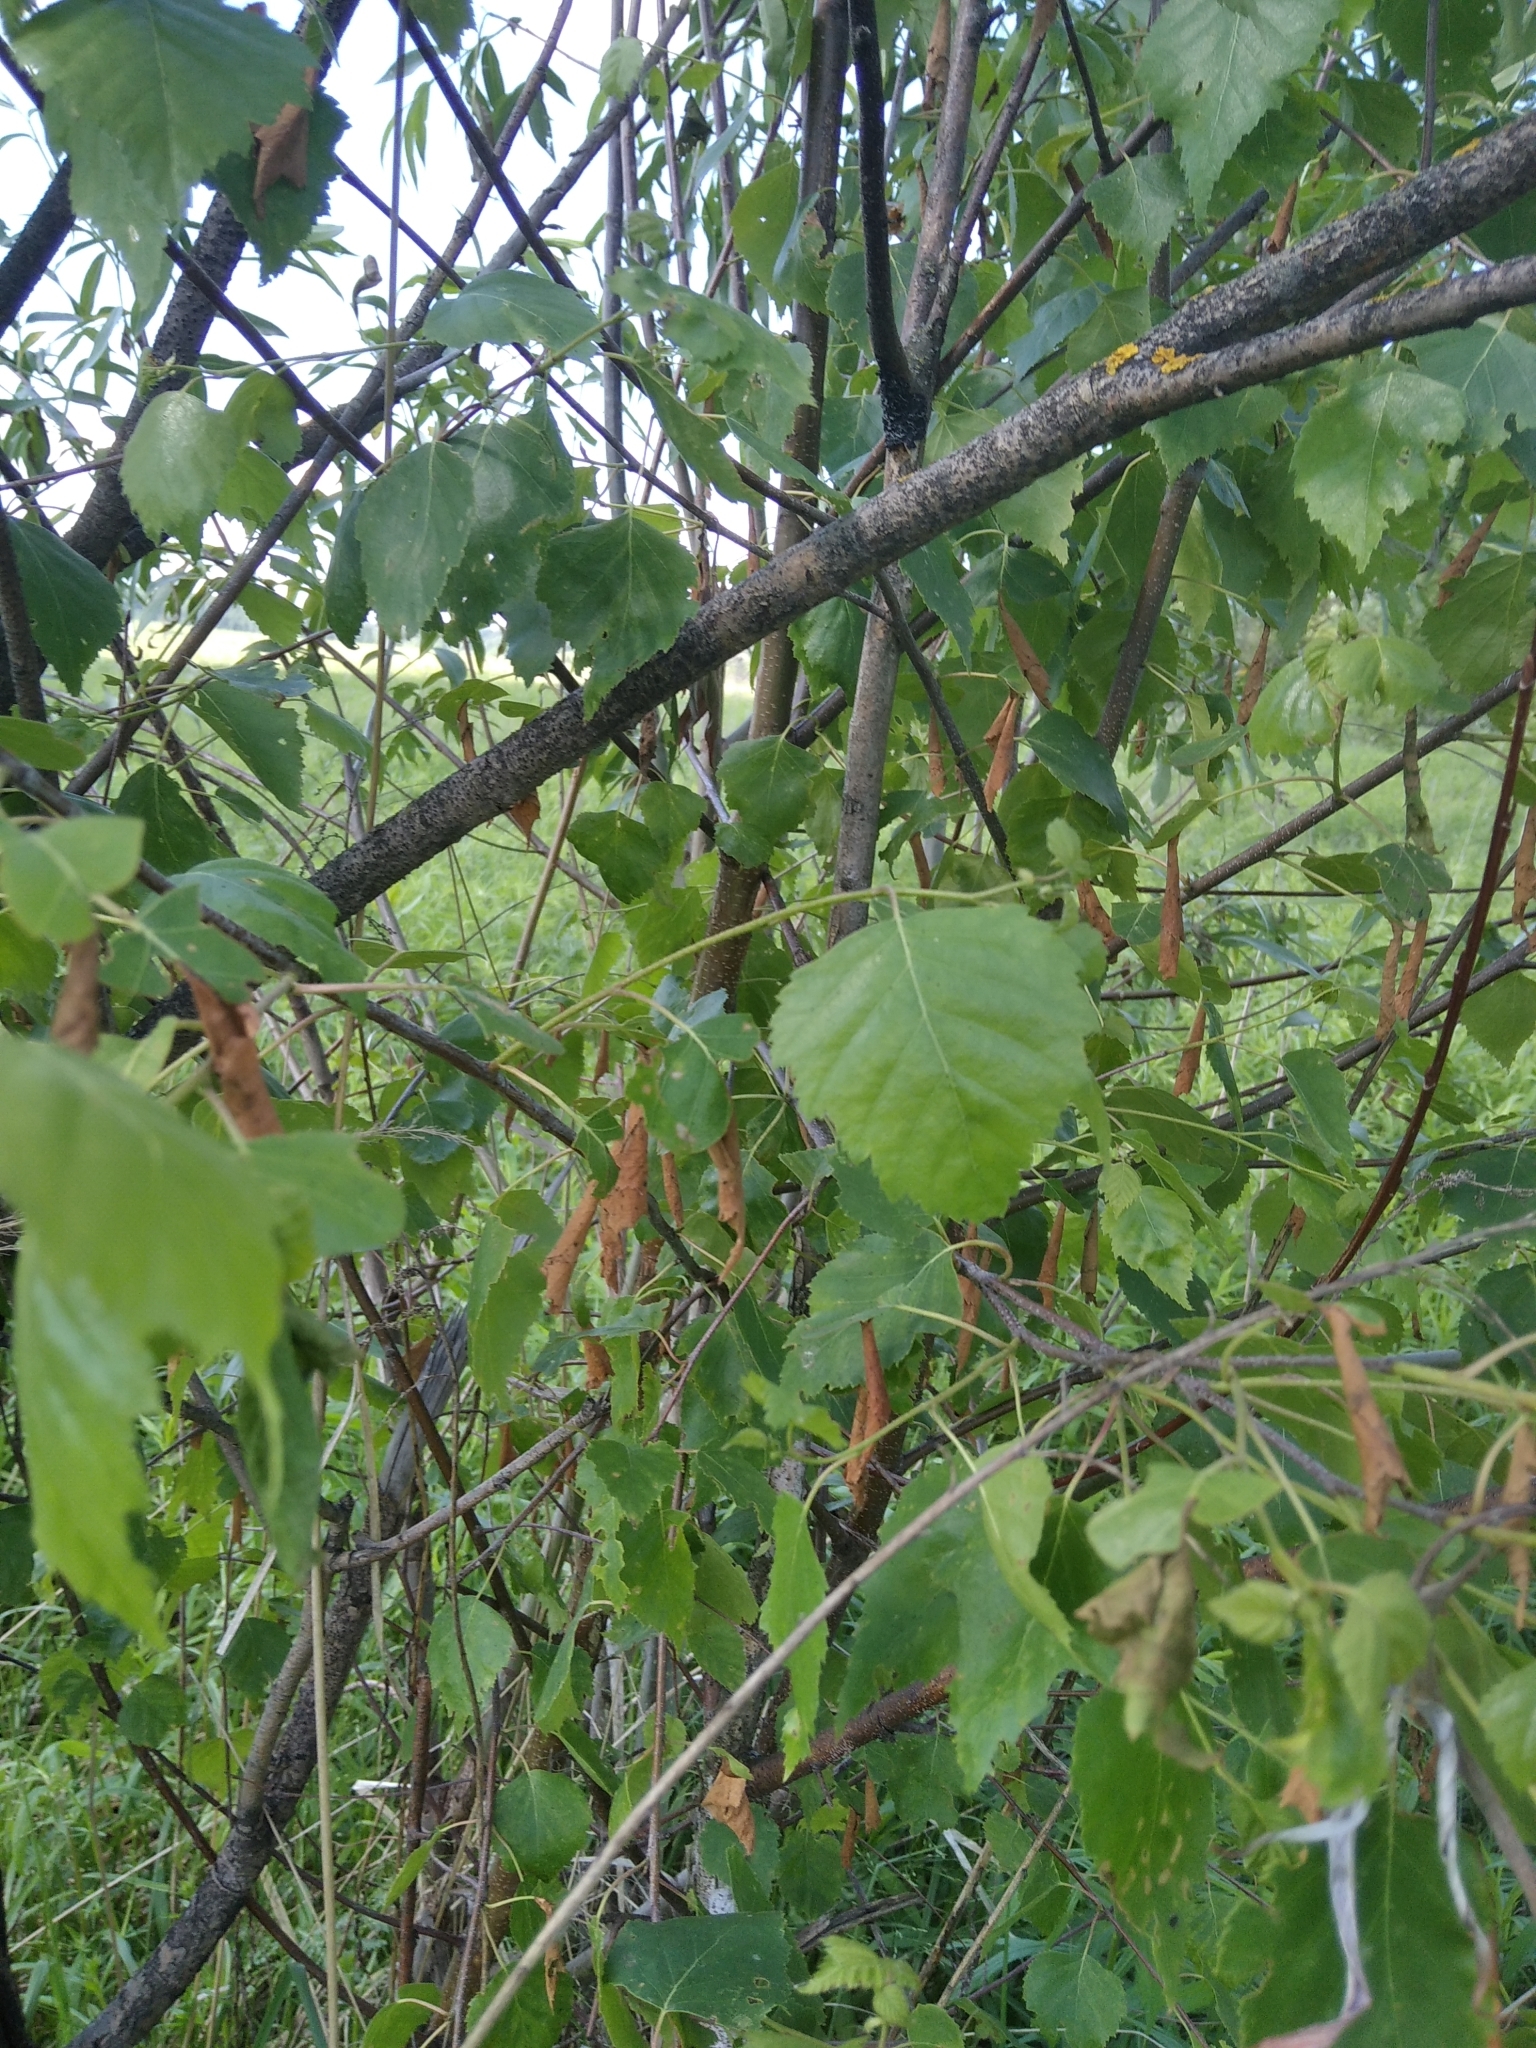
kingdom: Plantae
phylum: Tracheophyta
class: Magnoliopsida
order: Fagales
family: Betulaceae
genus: Betula
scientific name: Betula pendula
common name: Silver birch
